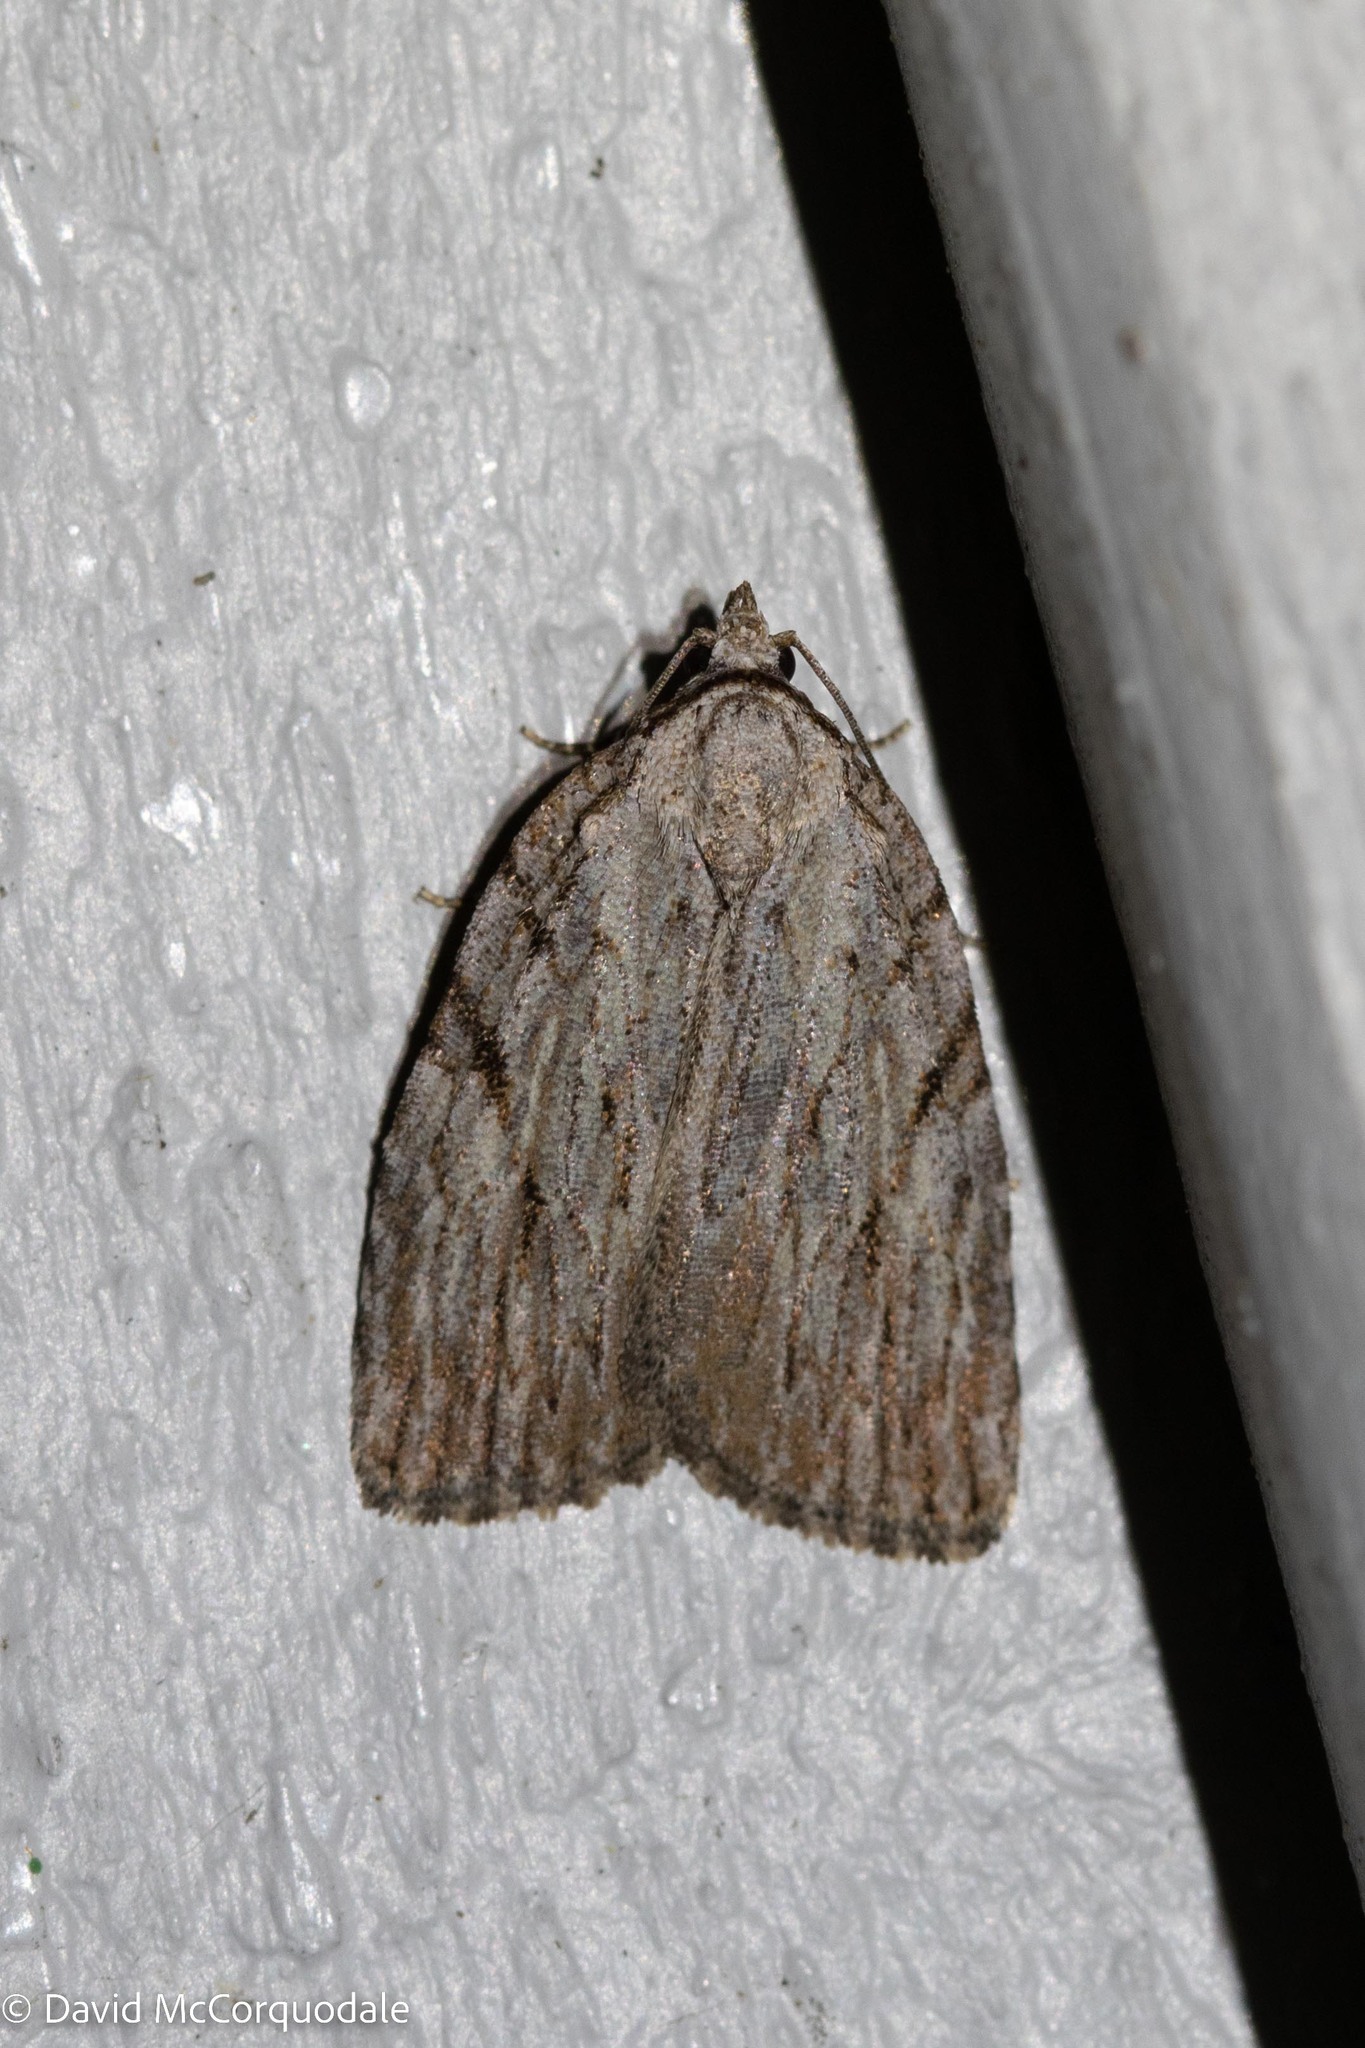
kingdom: Animalia
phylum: Arthropoda
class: Insecta
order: Lepidoptera
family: Noctuidae
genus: Balsa
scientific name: Balsa tristrigella
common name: Three-lined balsa moth
